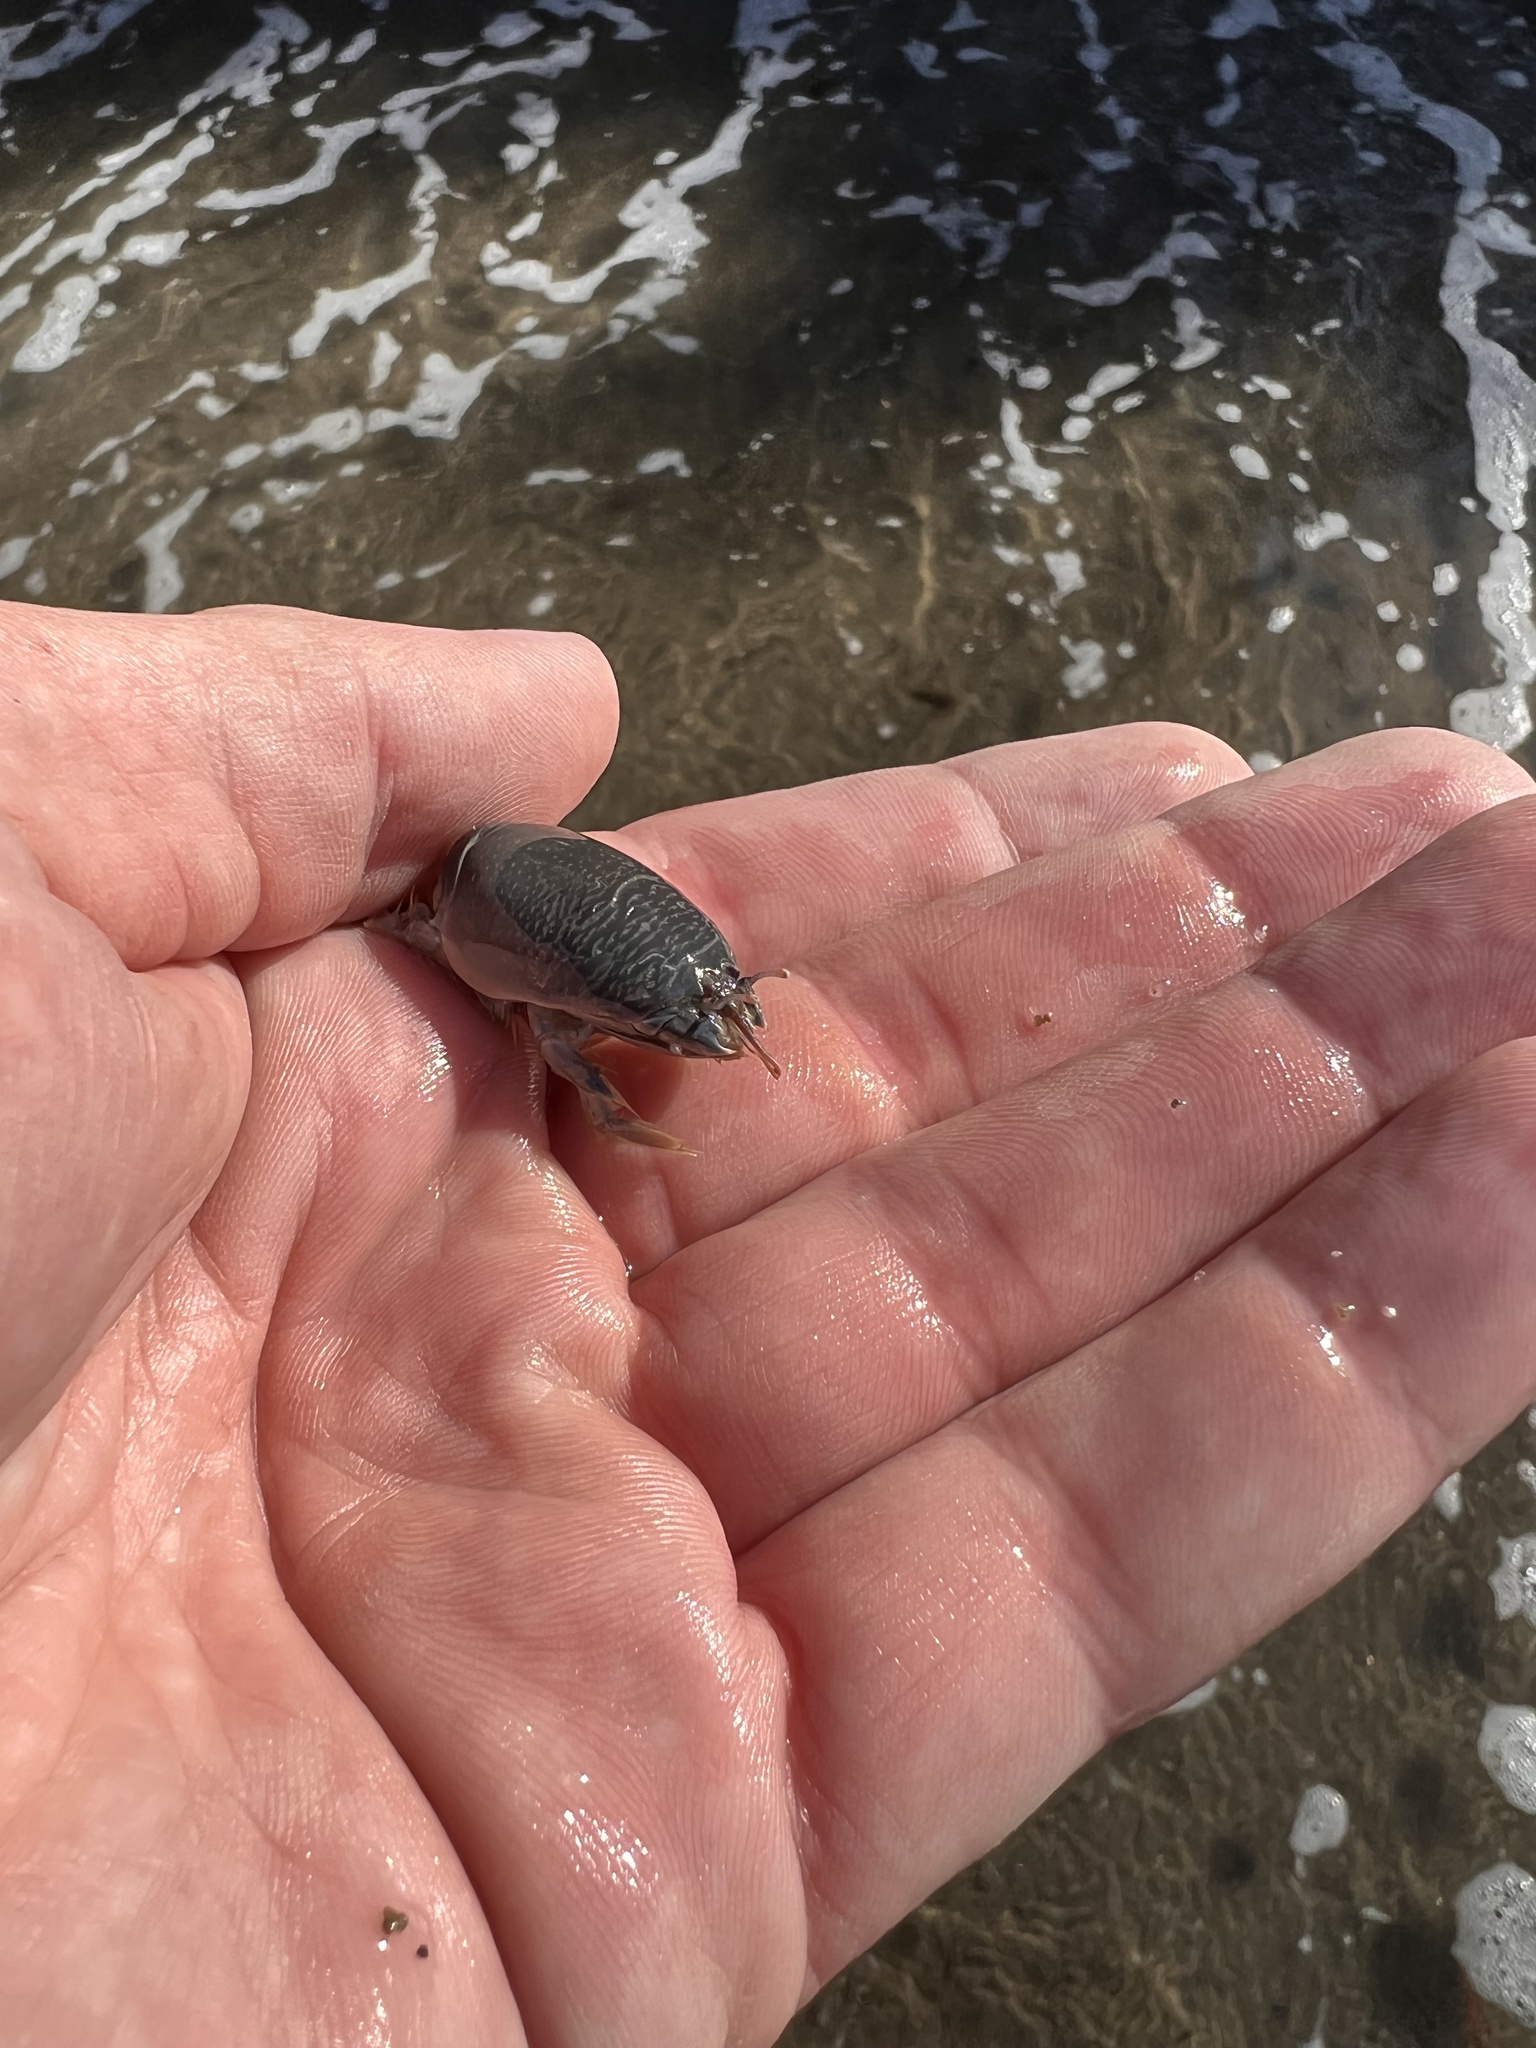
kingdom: Animalia
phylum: Arthropoda
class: Malacostraca
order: Decapoda
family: Hippidae
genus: Emerita
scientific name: Emerita analoga
